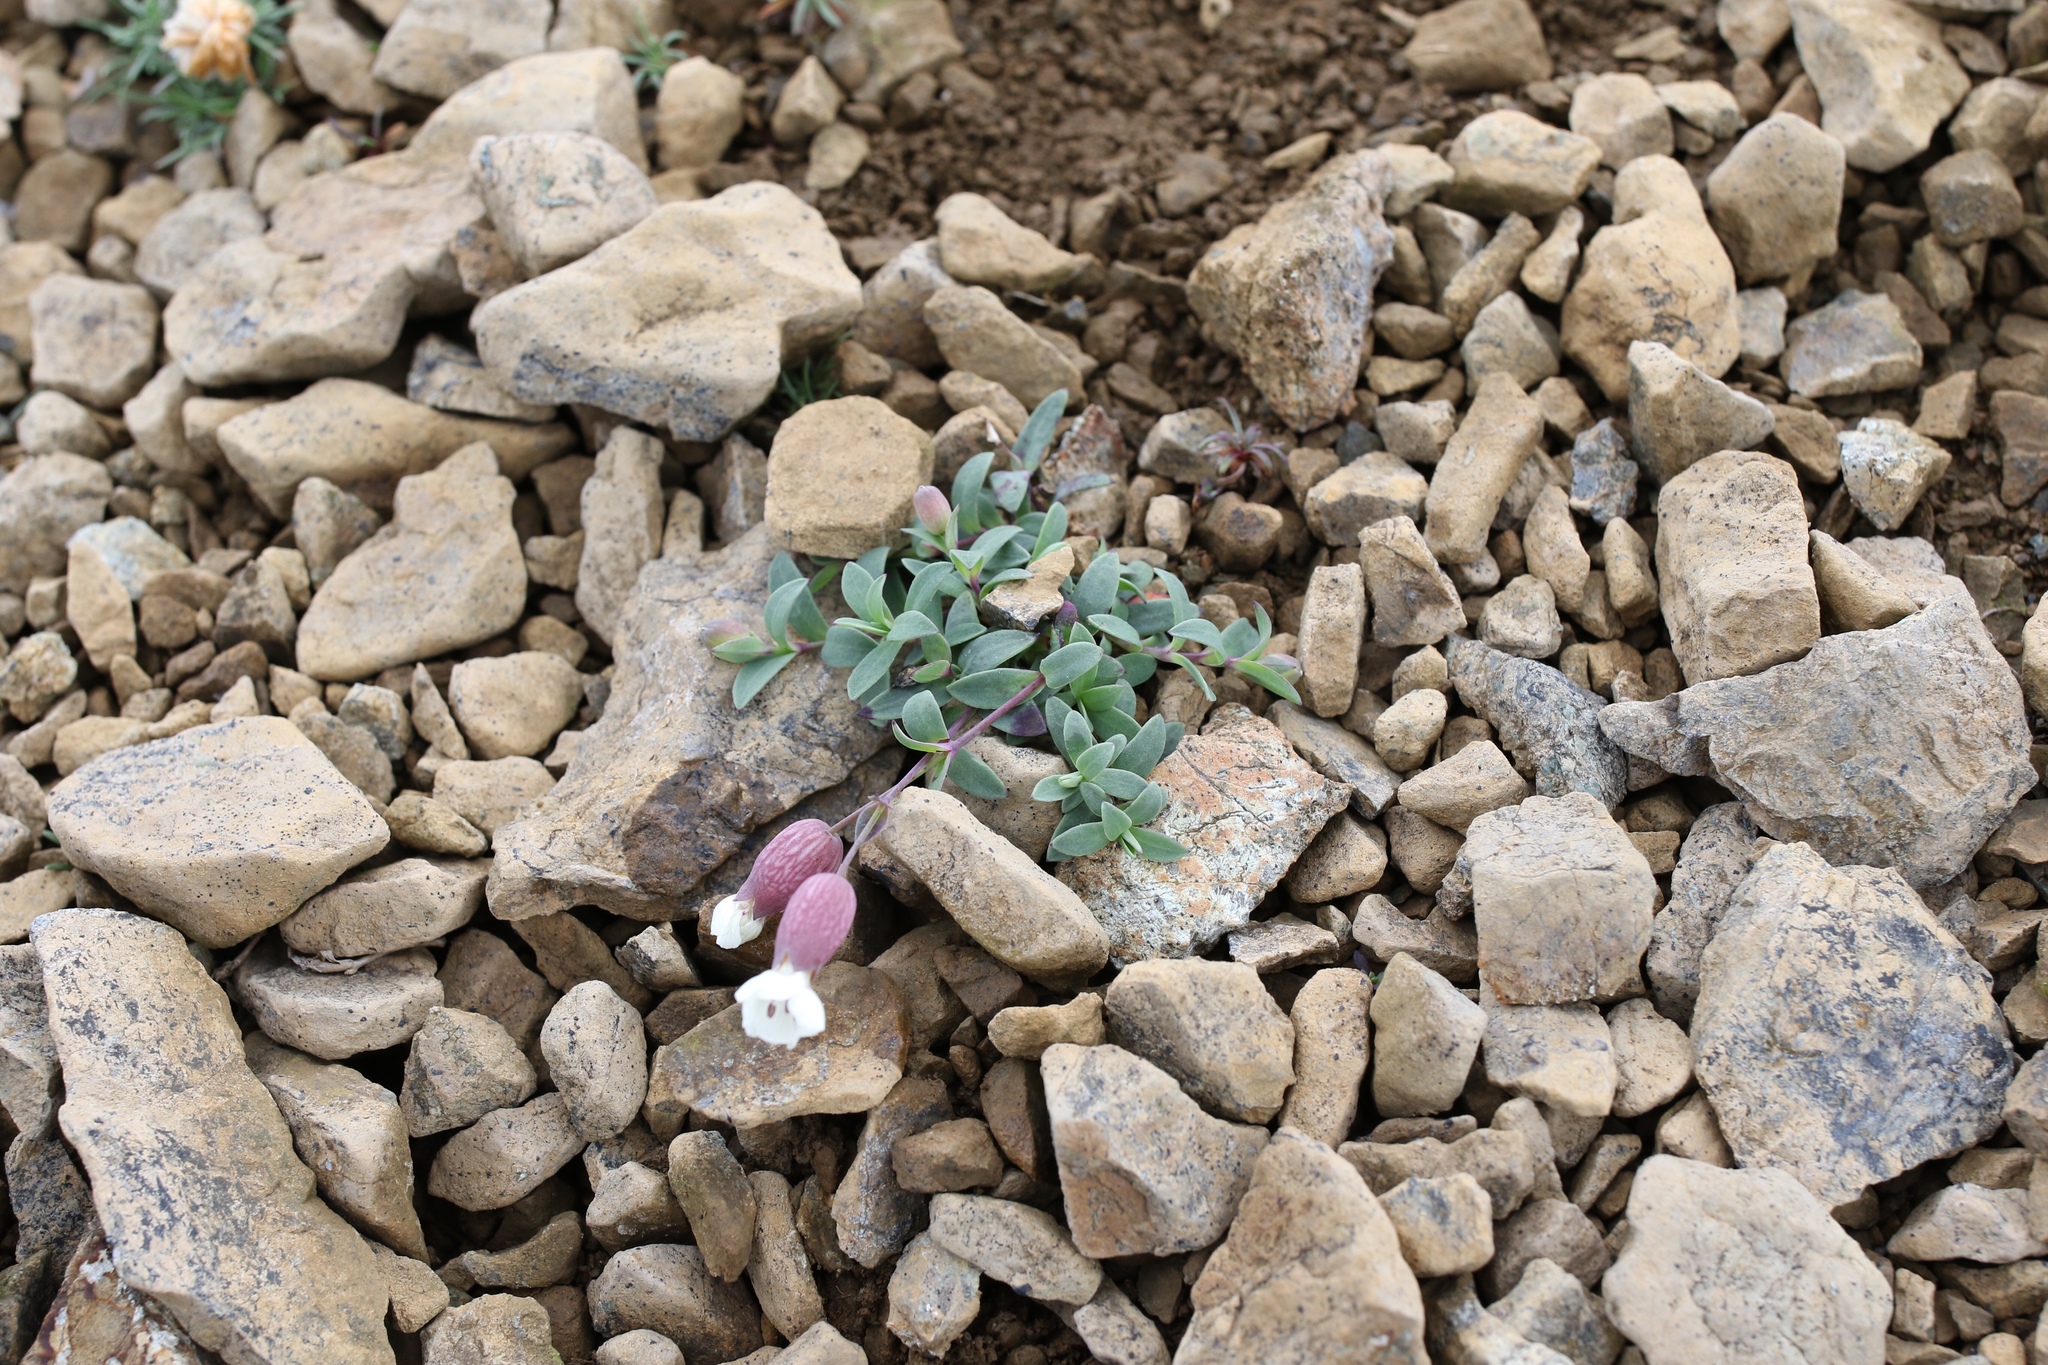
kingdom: Plantae
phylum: Tracheophyta
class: Magnoliopsida
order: Caryophyllales
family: Caryophyllaceae
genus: Silene
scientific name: Silene uniflora
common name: Sea campion
